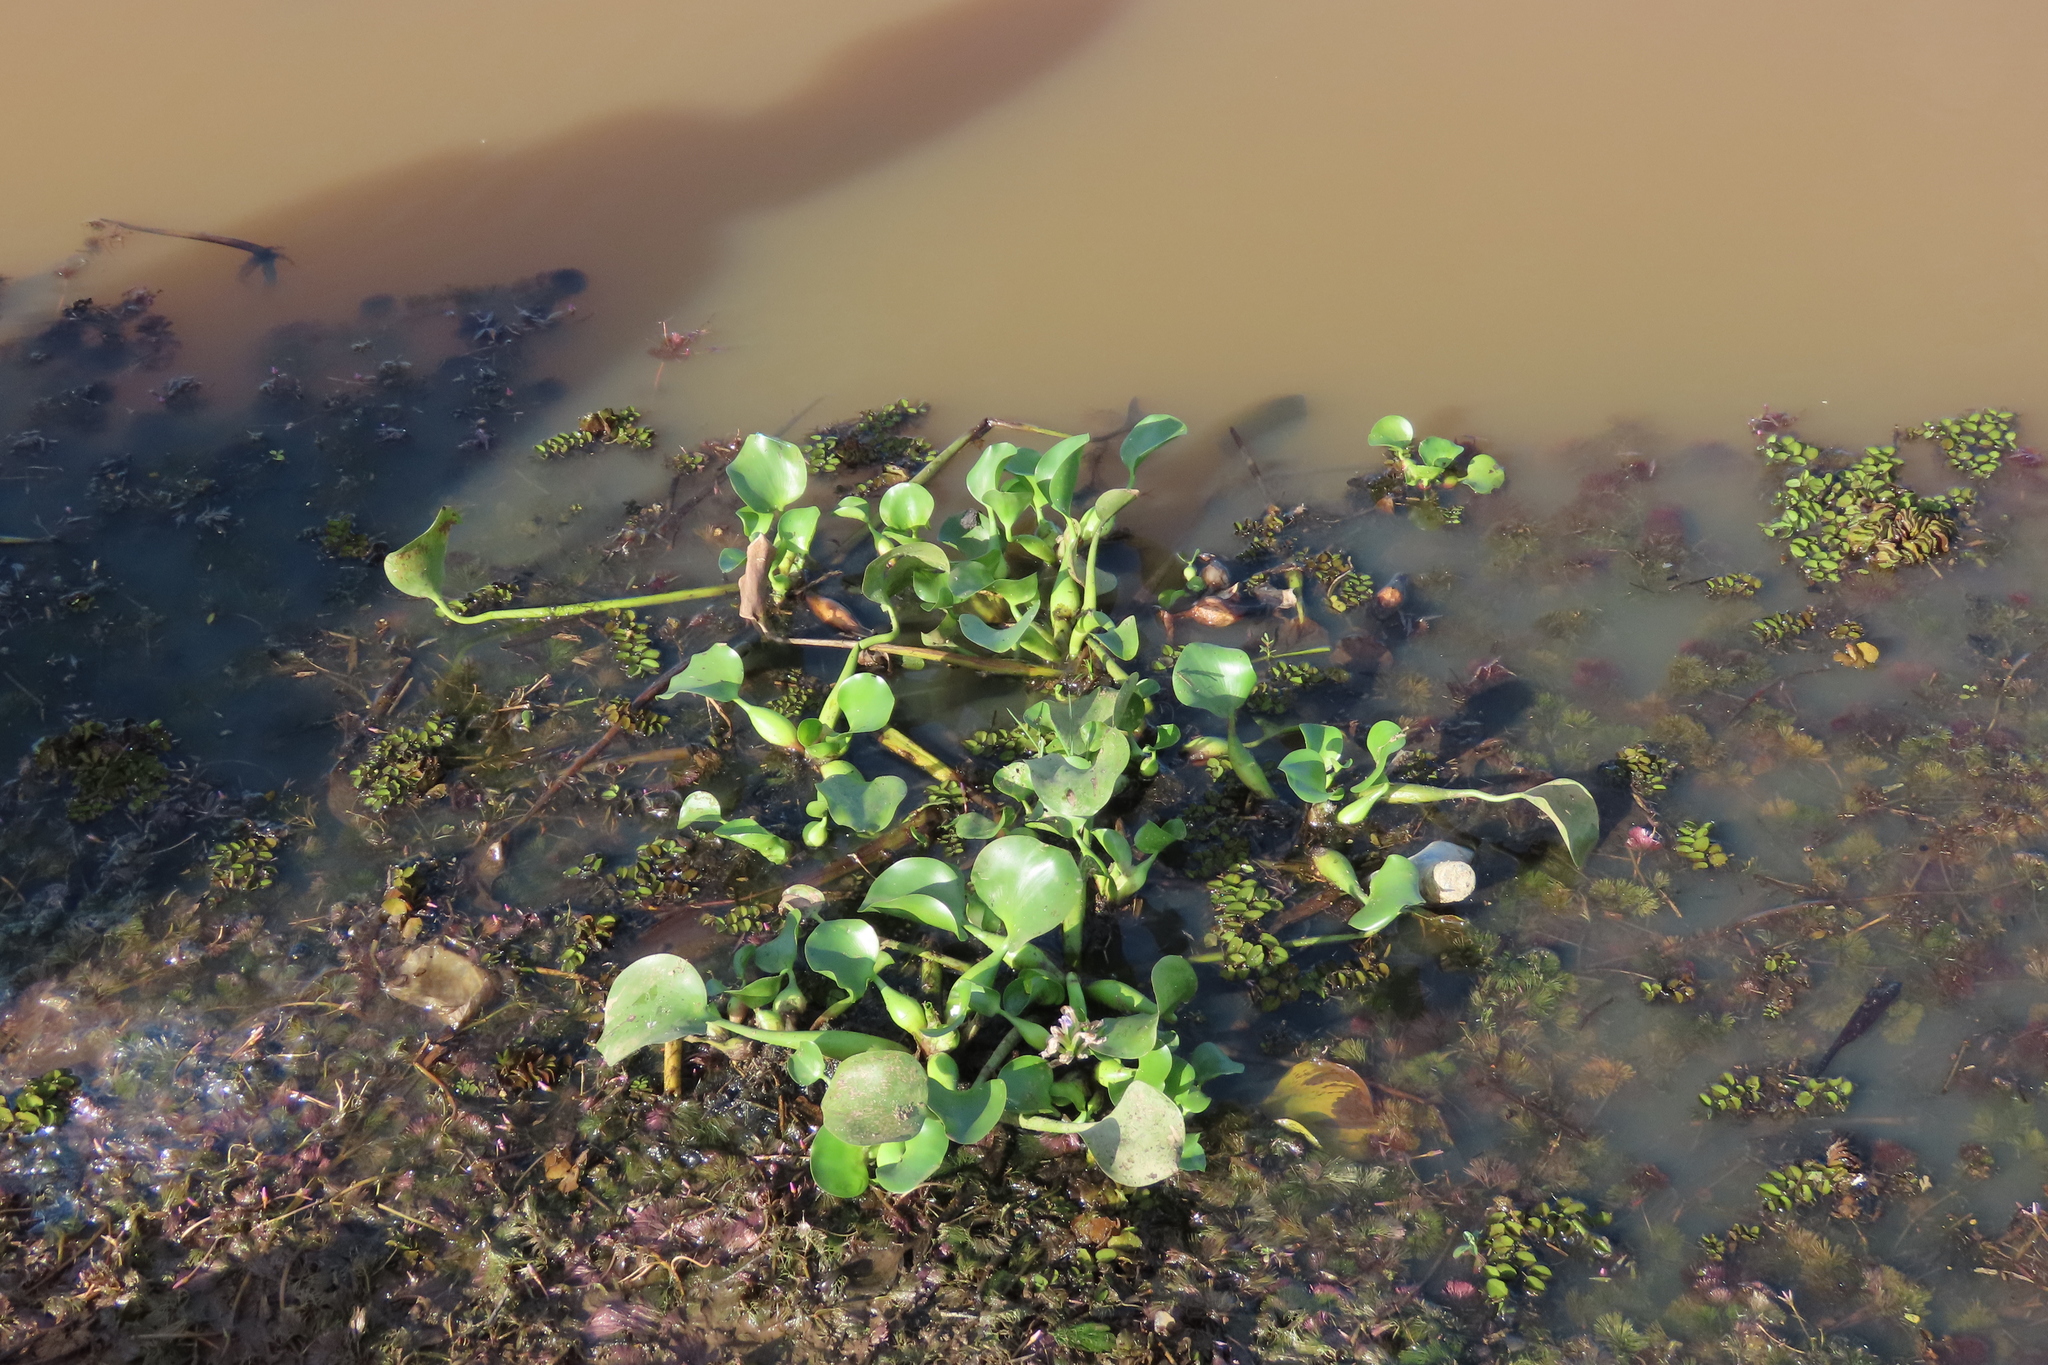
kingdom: Plantae
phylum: Tracheophyta
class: Liliopsida
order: Commelinales
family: Pontederiaceae
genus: Pontederia
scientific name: Pontederia crassipes
